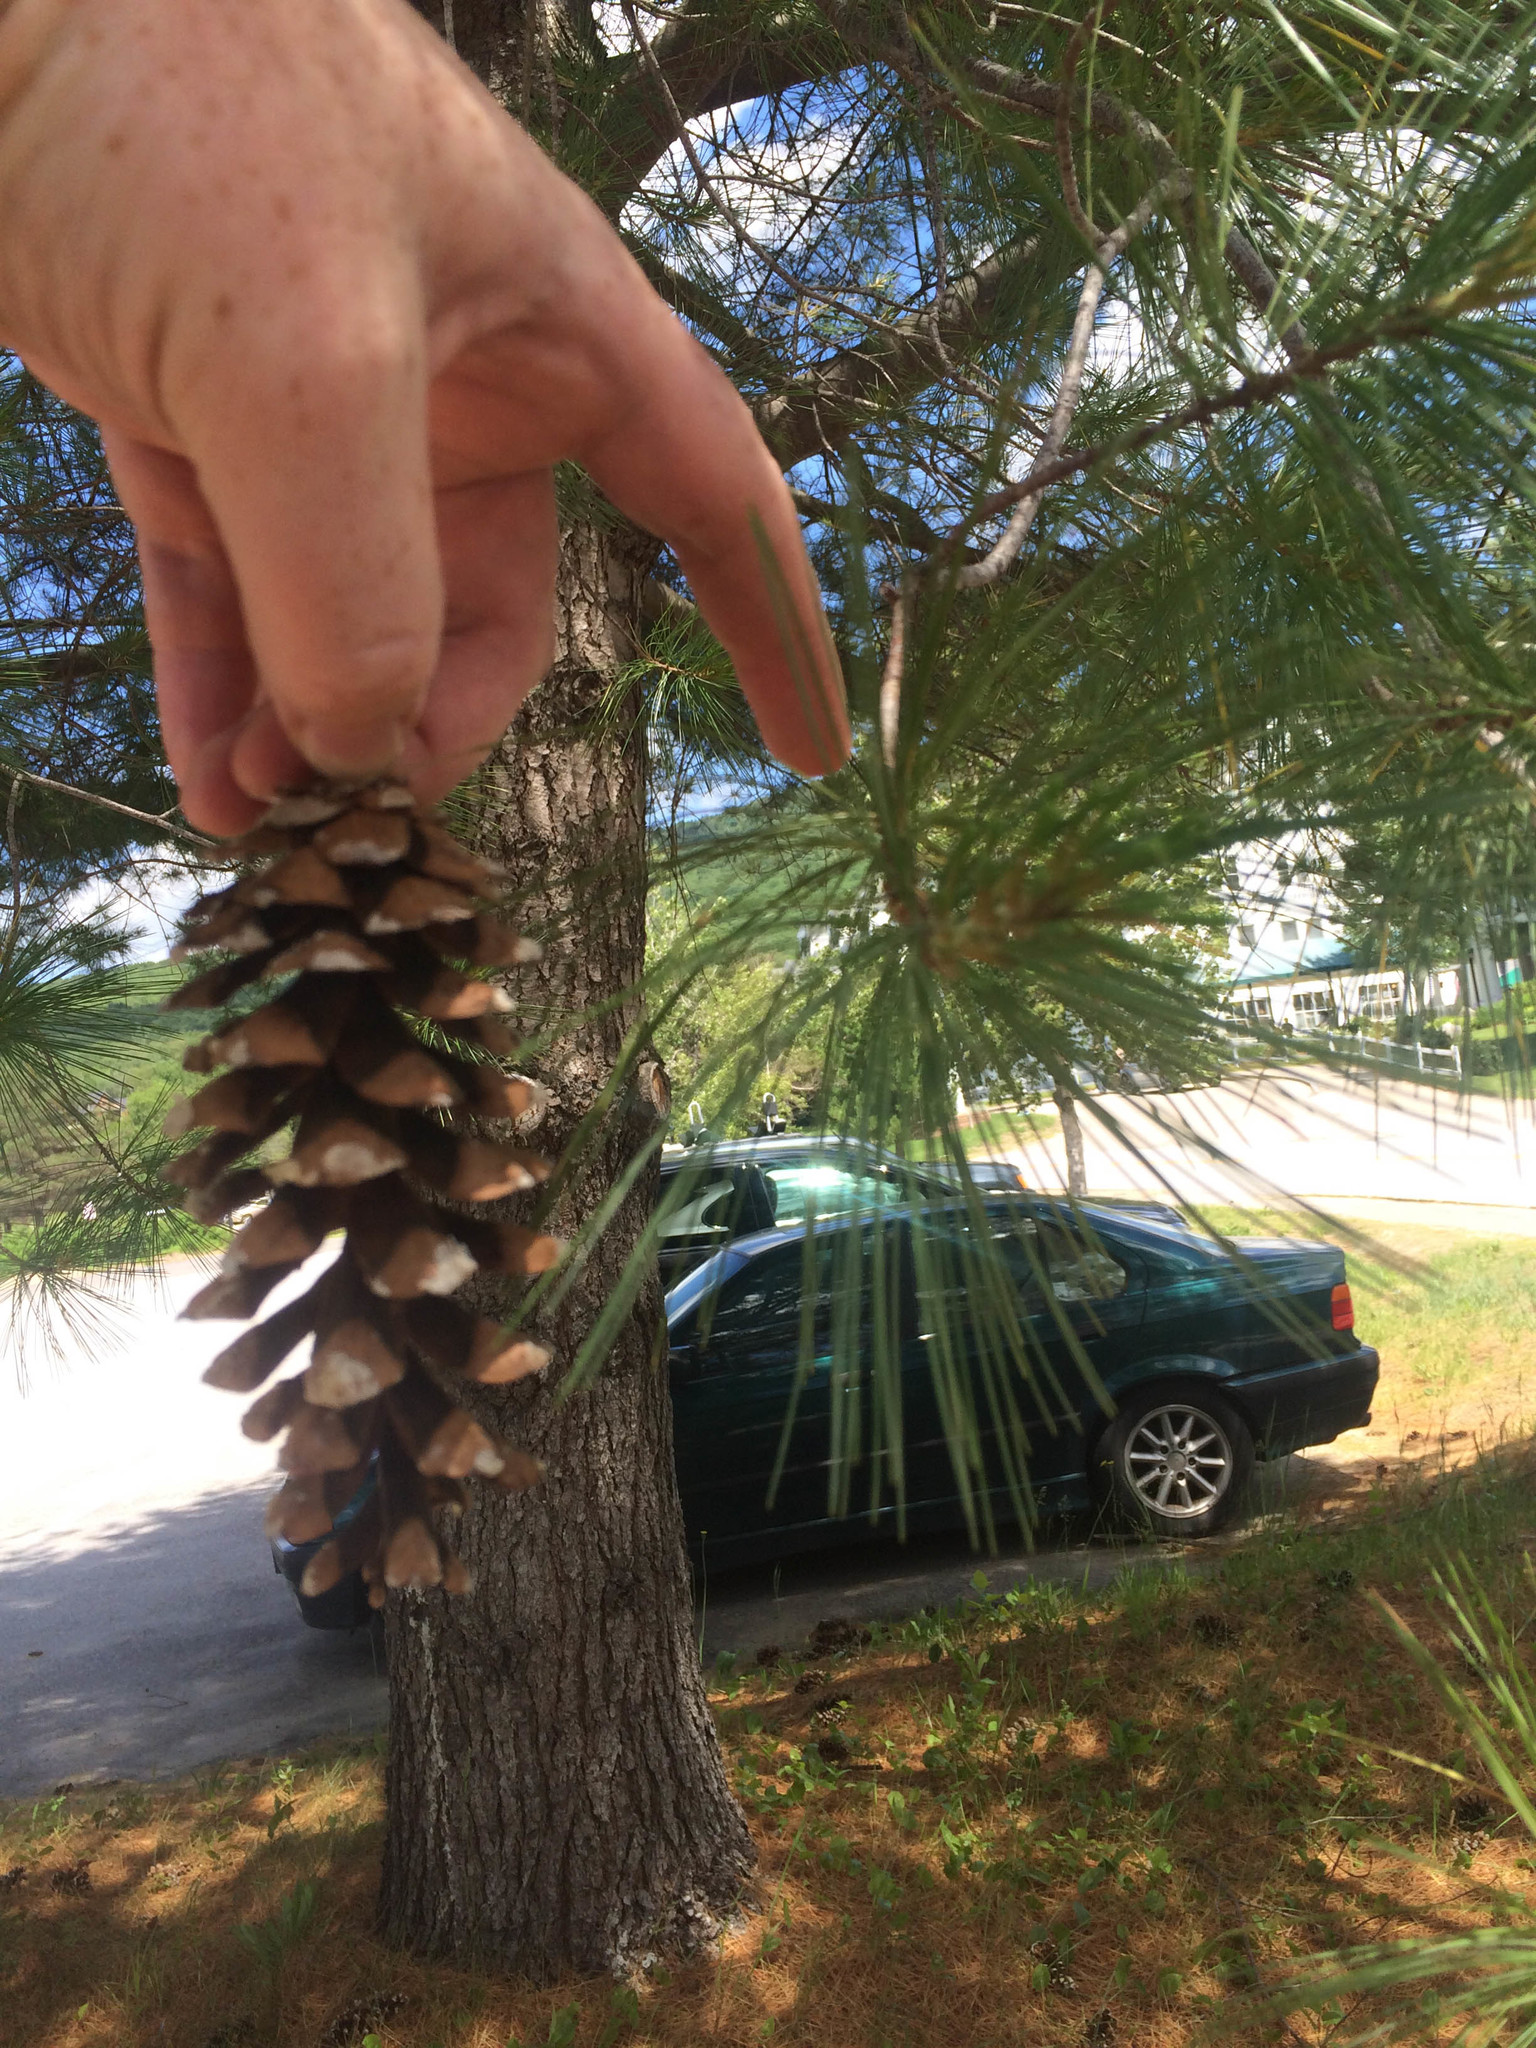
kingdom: Plantae
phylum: Tracheophyta
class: Pinopsida
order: Pinales
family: Pinaceae
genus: Pinus
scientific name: Pinus strobus
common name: Weymouth pine
